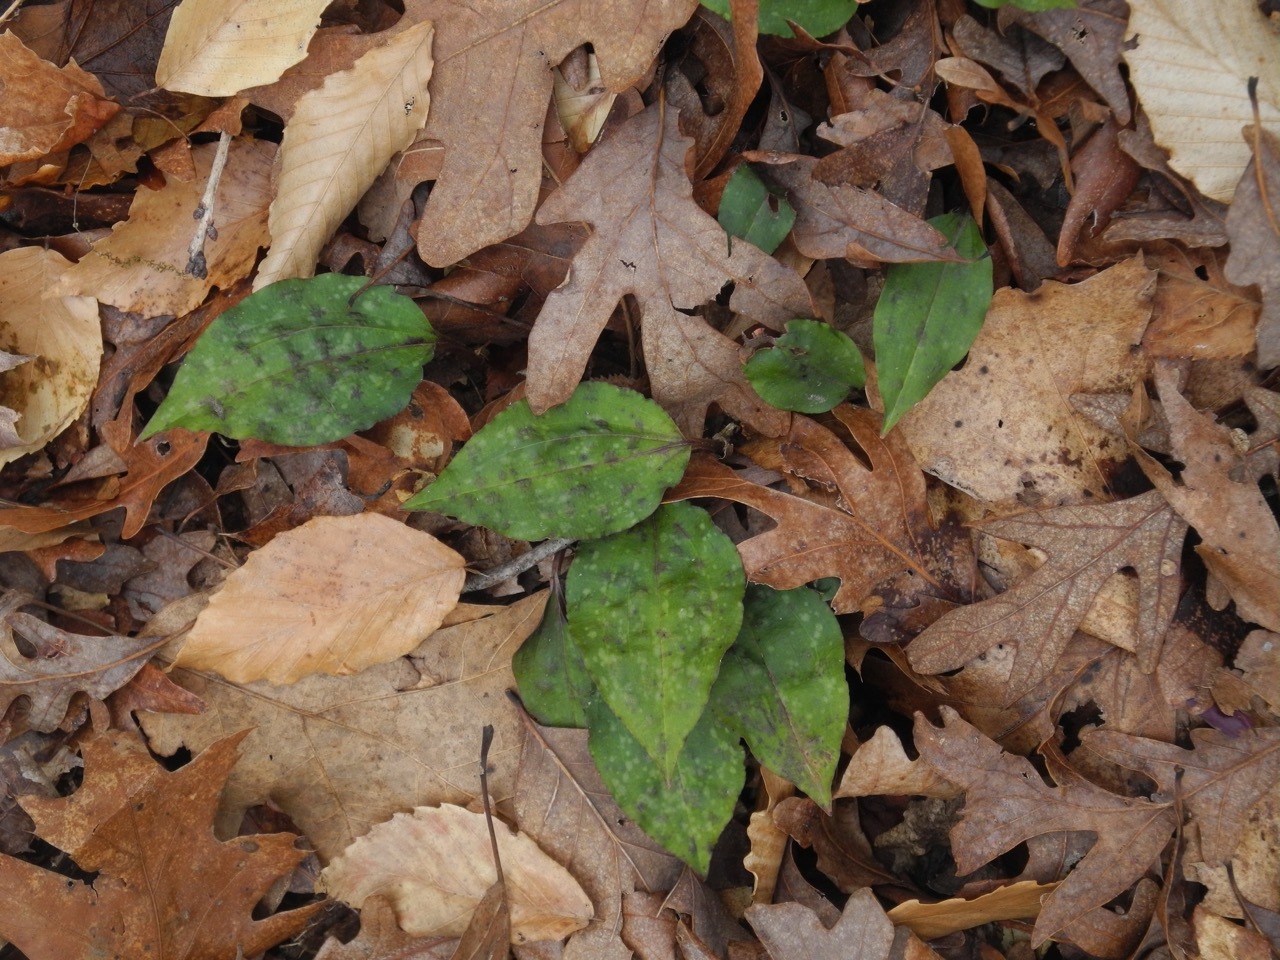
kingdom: Plantae
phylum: Tracheophyta
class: Liliopsida
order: Asparagales
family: Orchidaceae
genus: Tipularia
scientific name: Tipularia discolor
